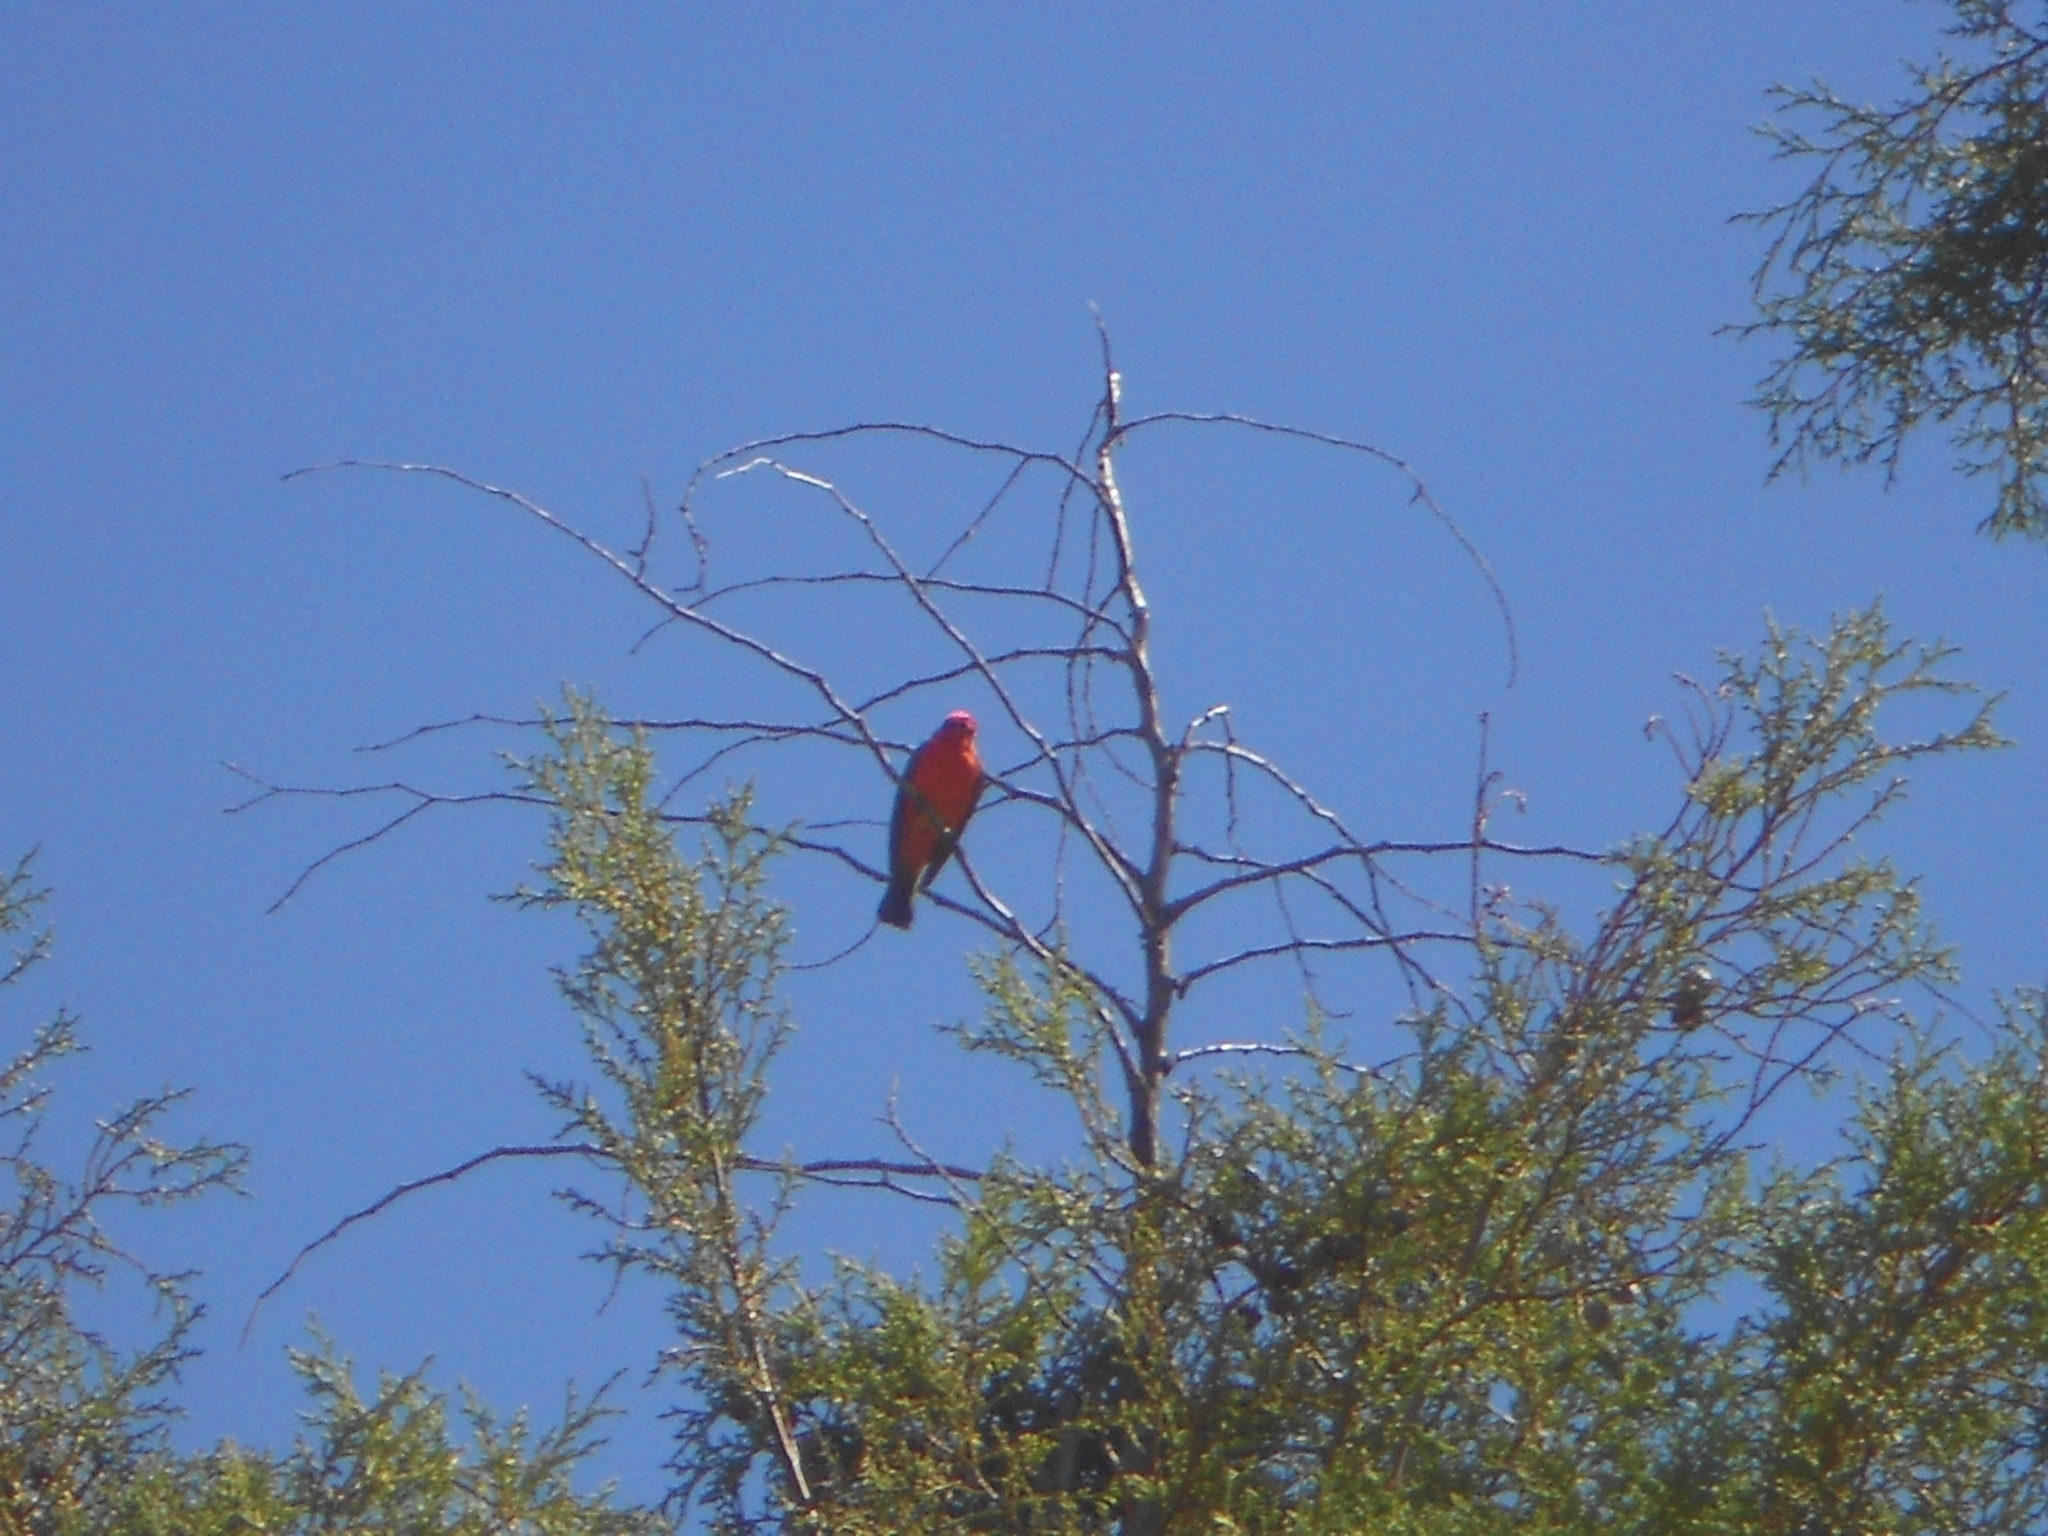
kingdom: Animalia
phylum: Chordata
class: Aves
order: Passeriformes
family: Tyrannidae
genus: Pyrocephalus
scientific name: Pyrocephalus rubinus
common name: Vermilion flycatcher
